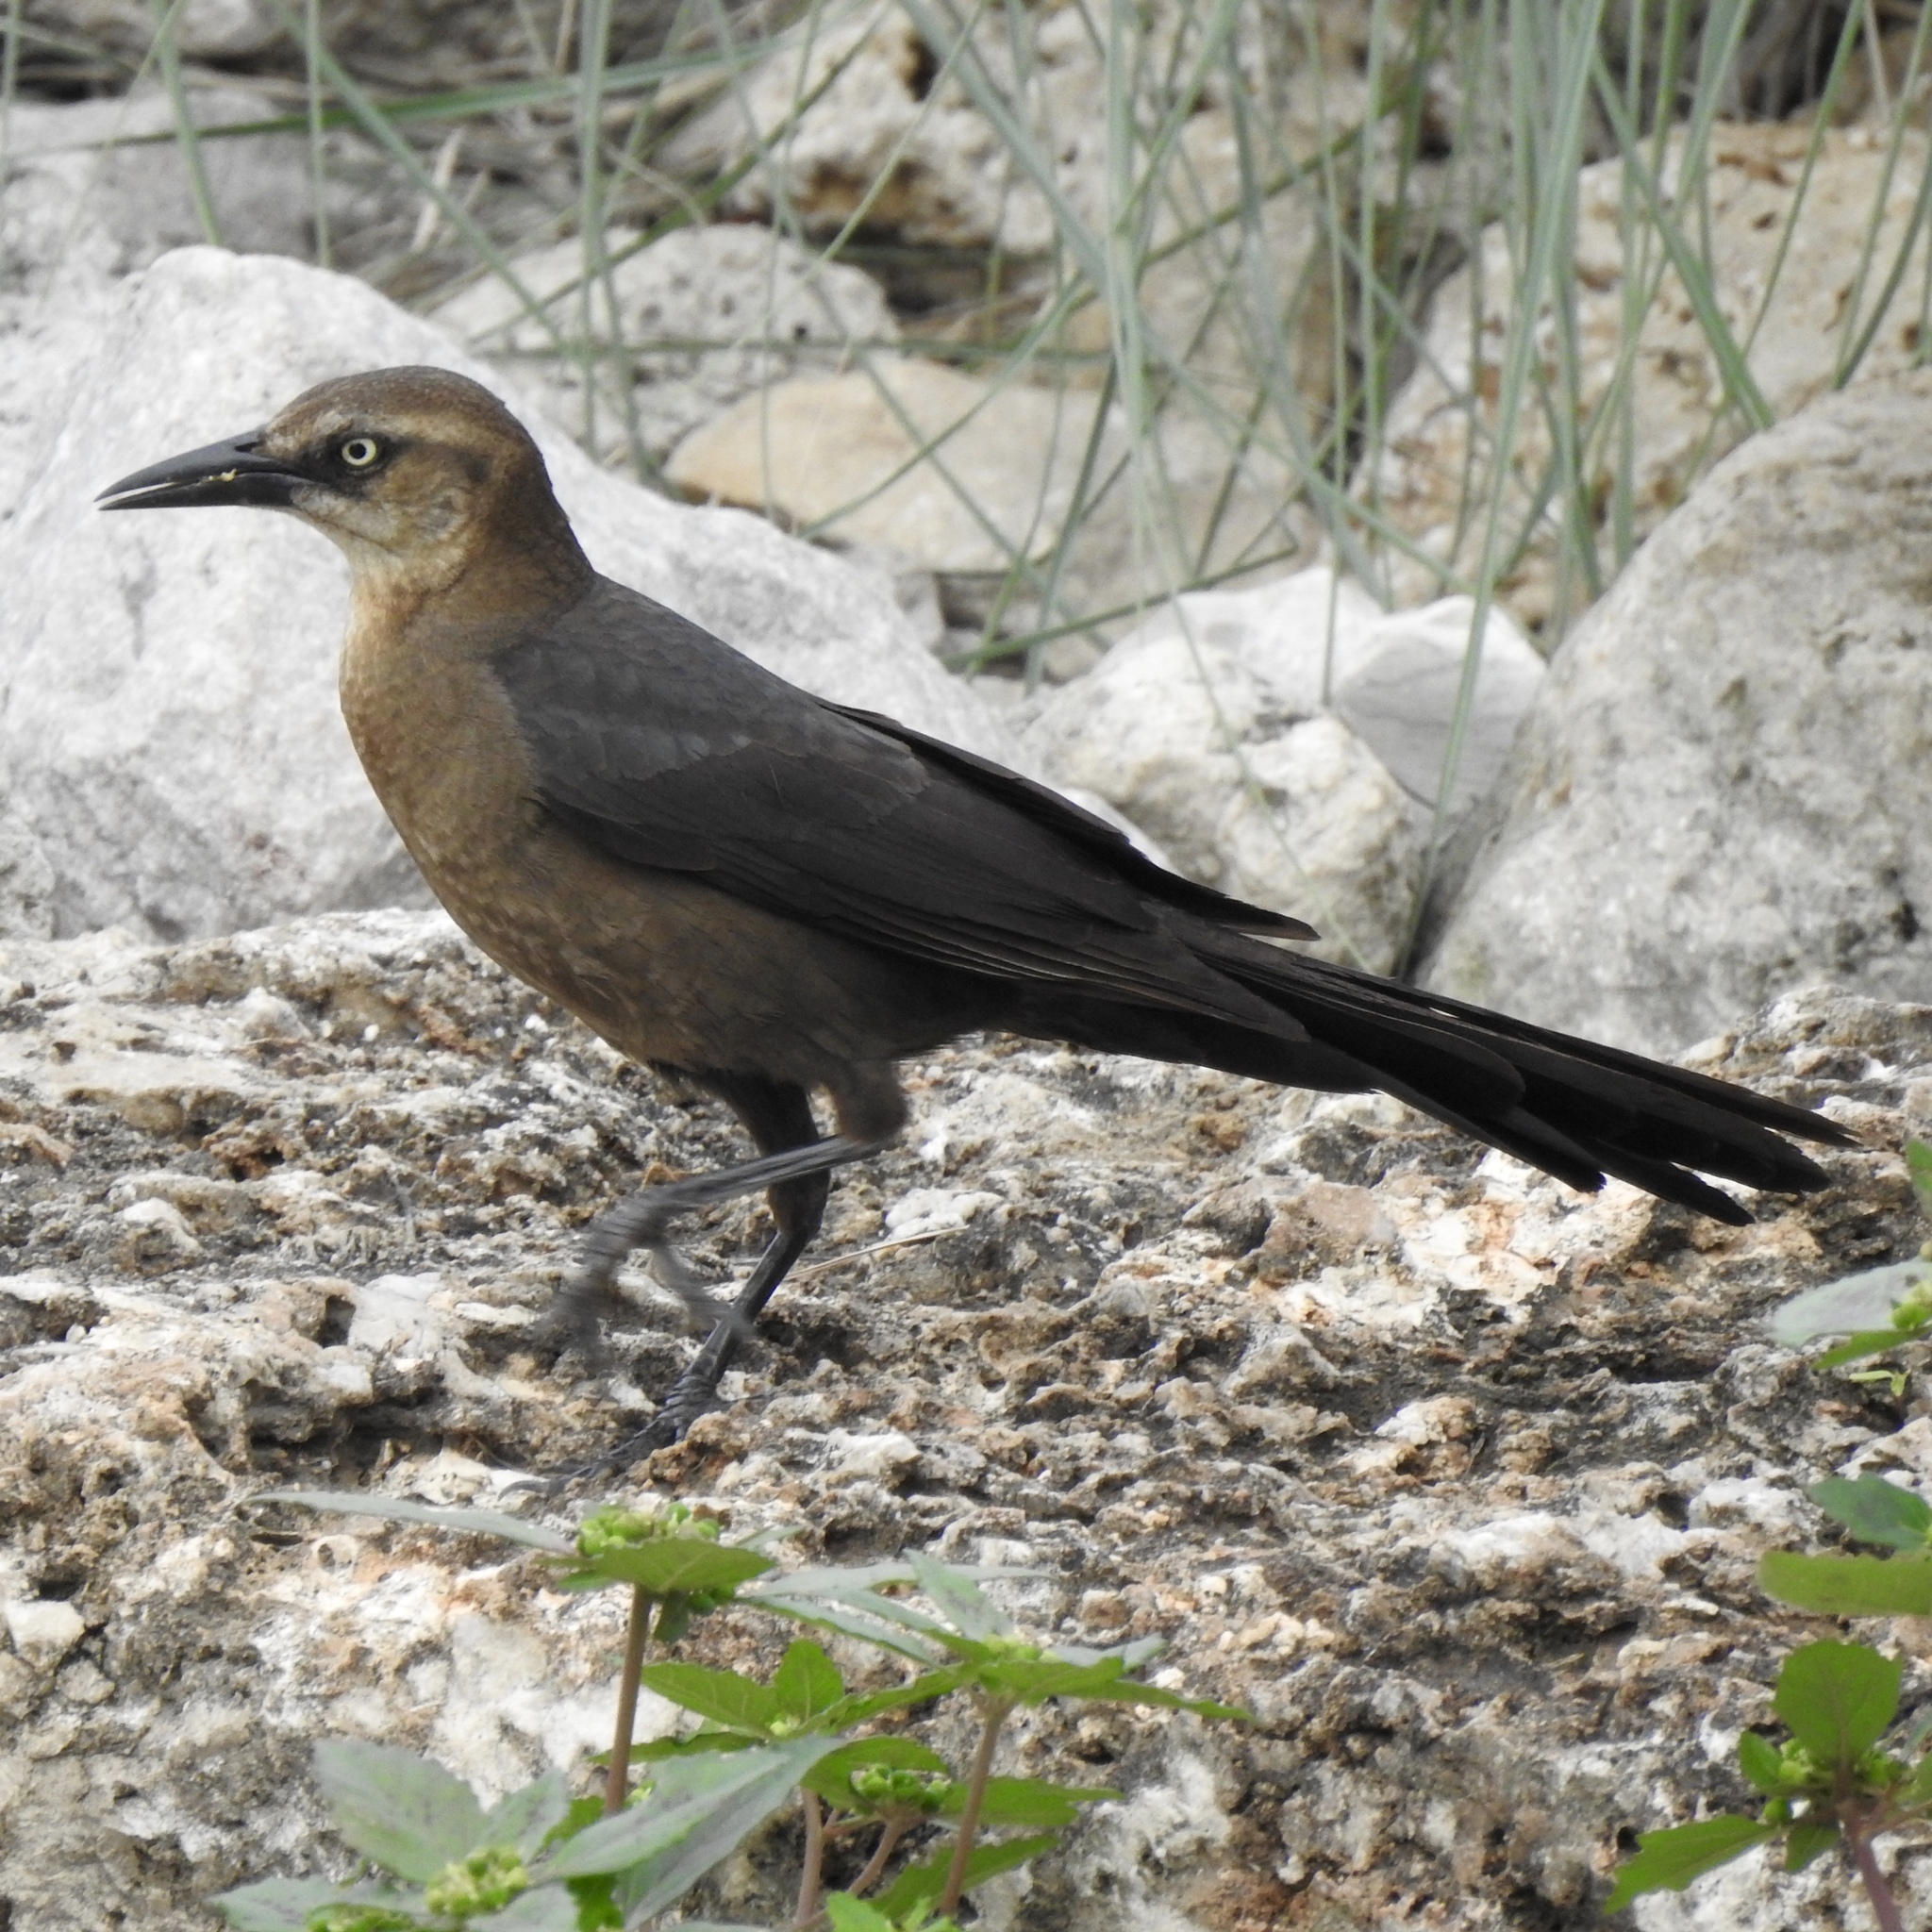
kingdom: Animalia
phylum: Chordata
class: Aves
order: Passeriformes
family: Icteridae
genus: Quiscalus
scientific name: Quiscalus mexicanus
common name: Great-tailed grackle
